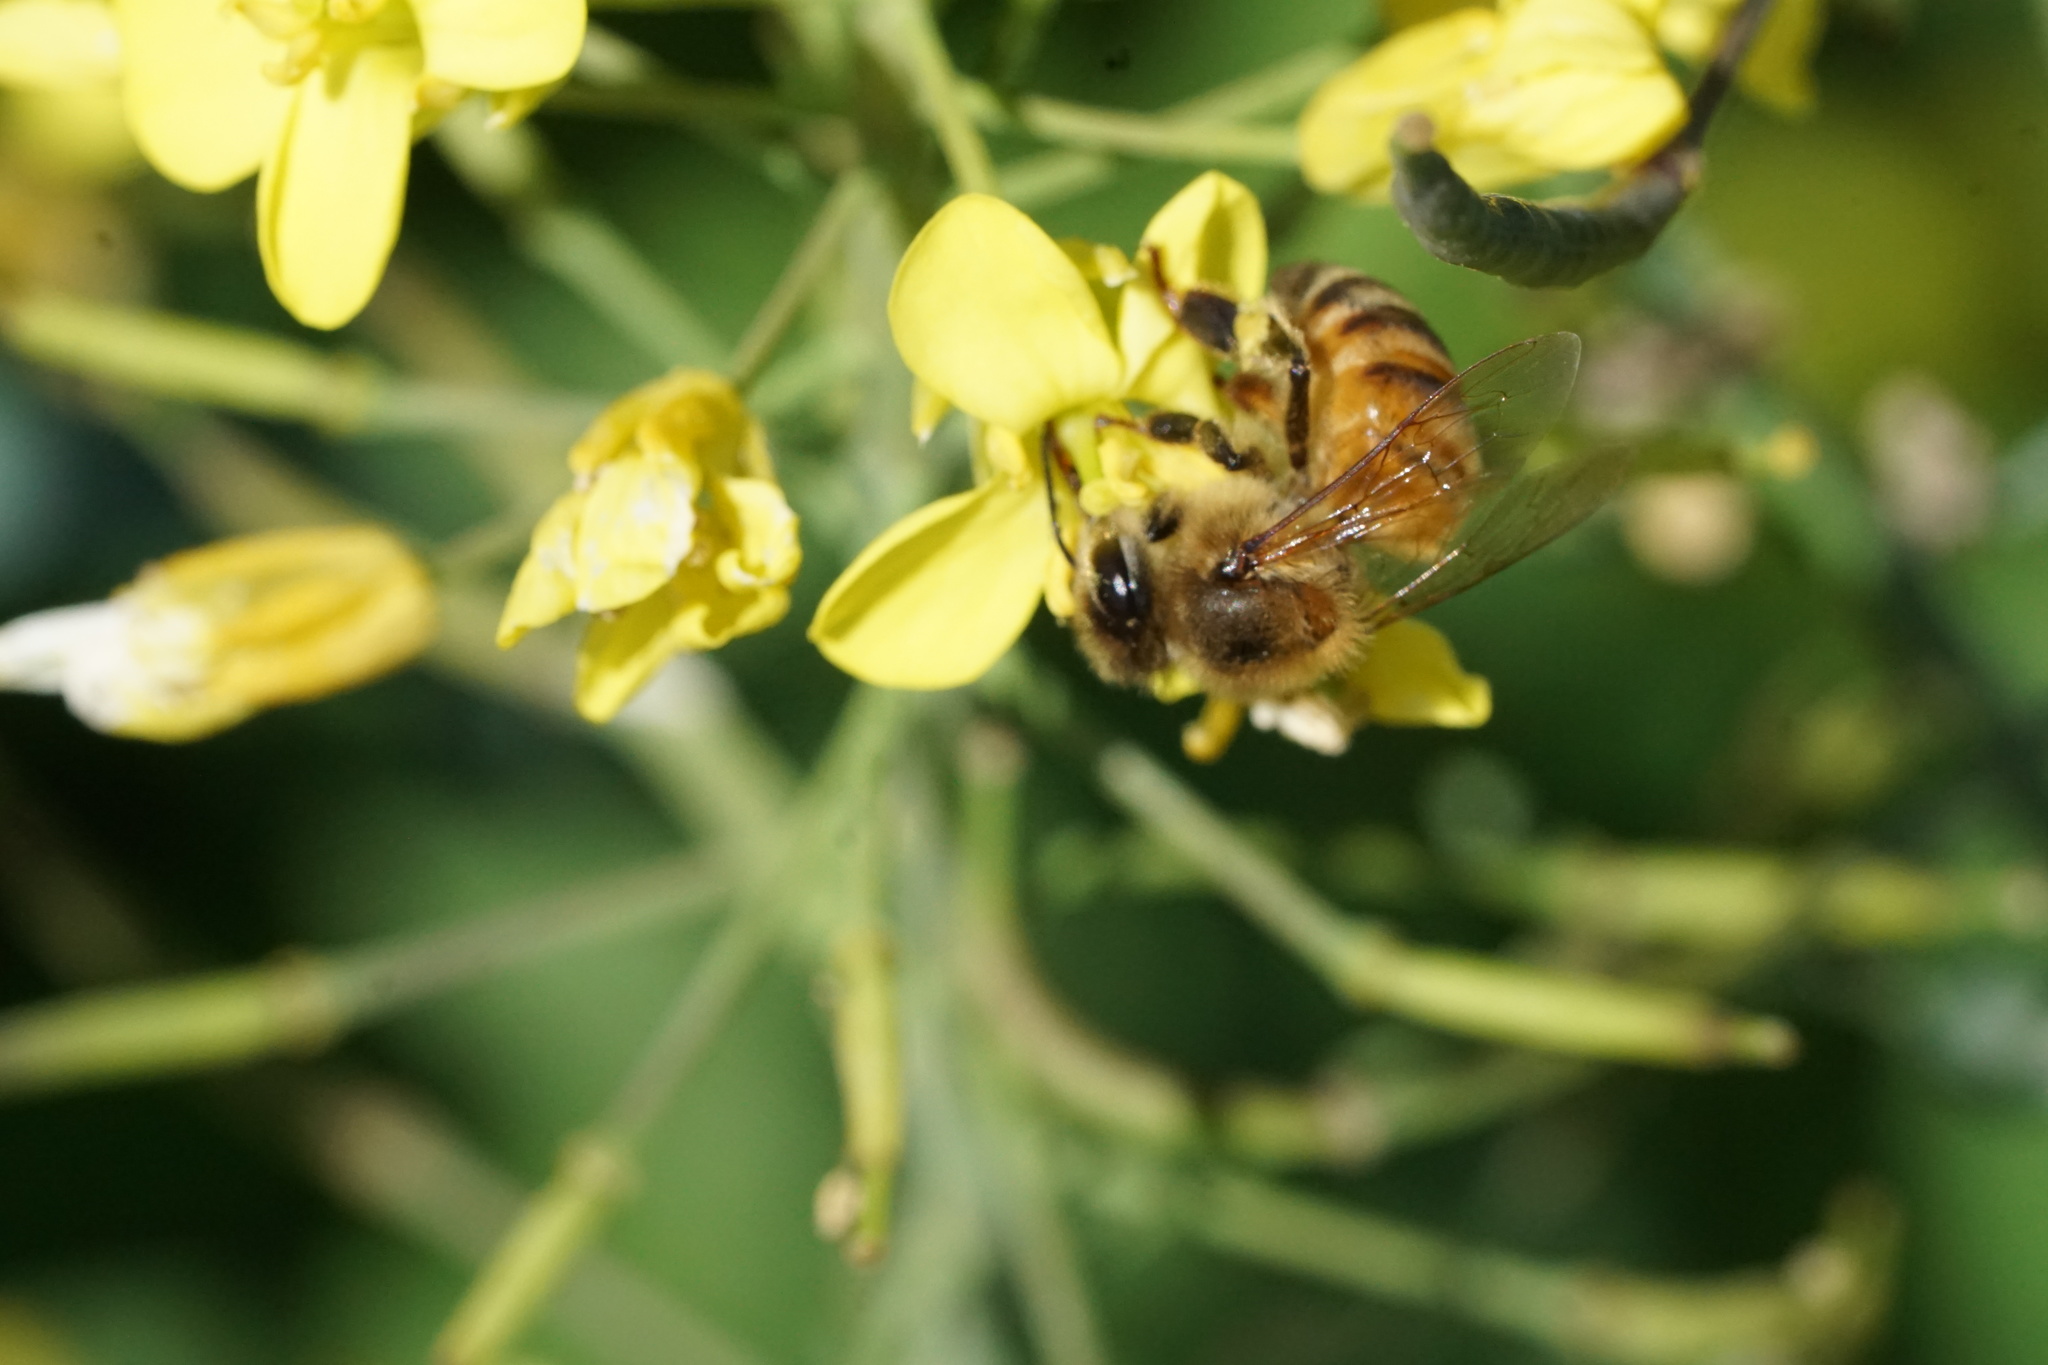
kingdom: Animalia
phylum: Arthropoda
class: Insecta
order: Hymenoptera
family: Apidae
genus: Apis
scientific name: Apis mellifera
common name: Honey bee
